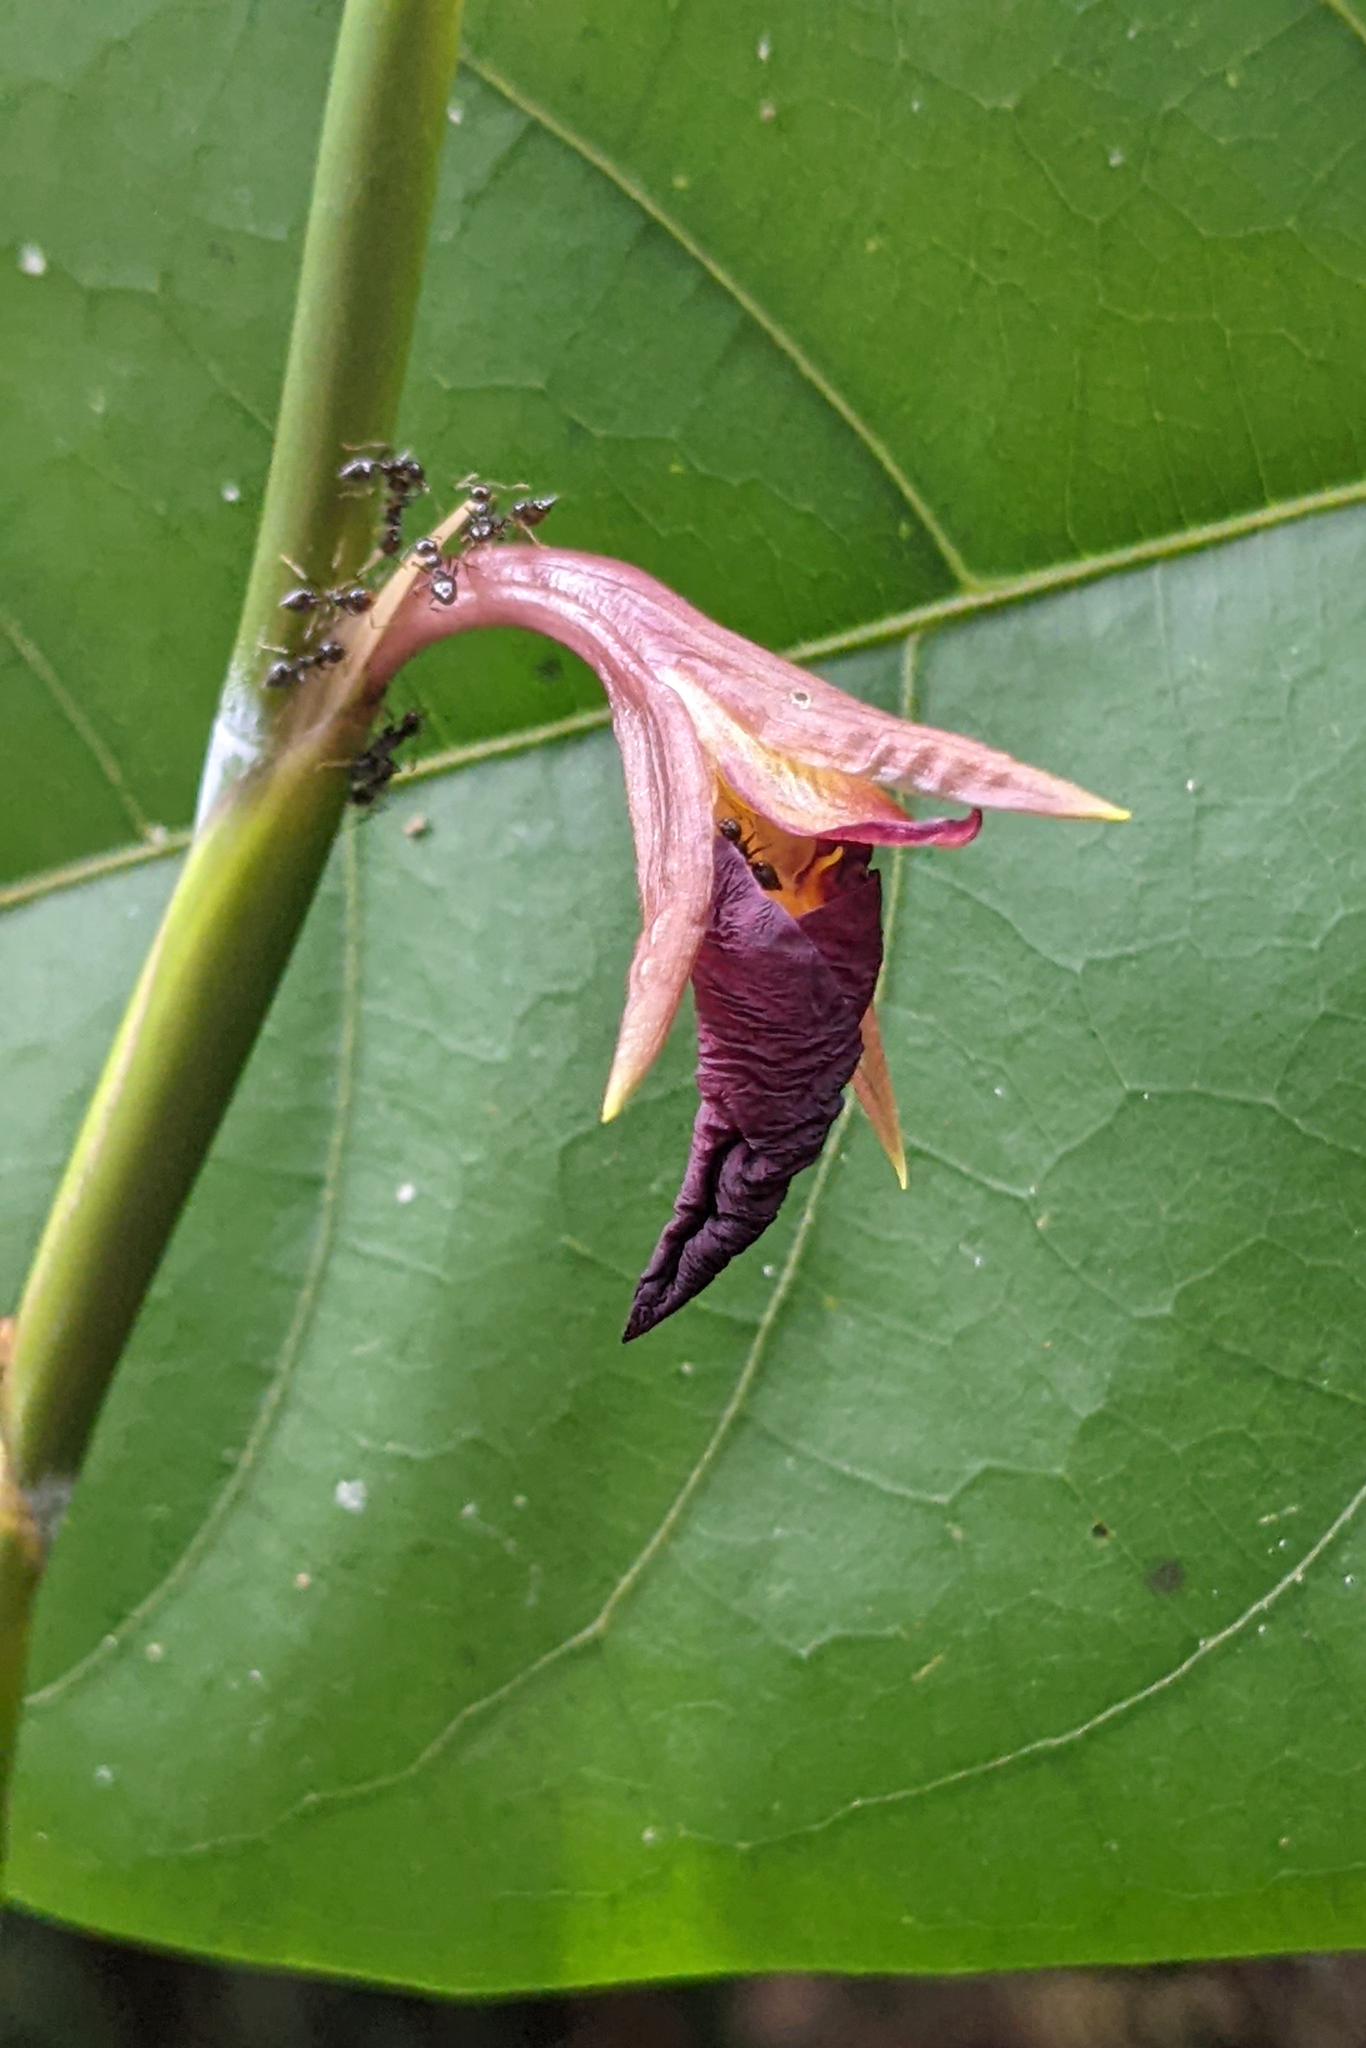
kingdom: Plantae
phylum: Tracheophyta
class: Liliopsida
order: Zingiberales
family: Marantaceae
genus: Ischnosiphon
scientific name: Ischnosiphon puberulus
